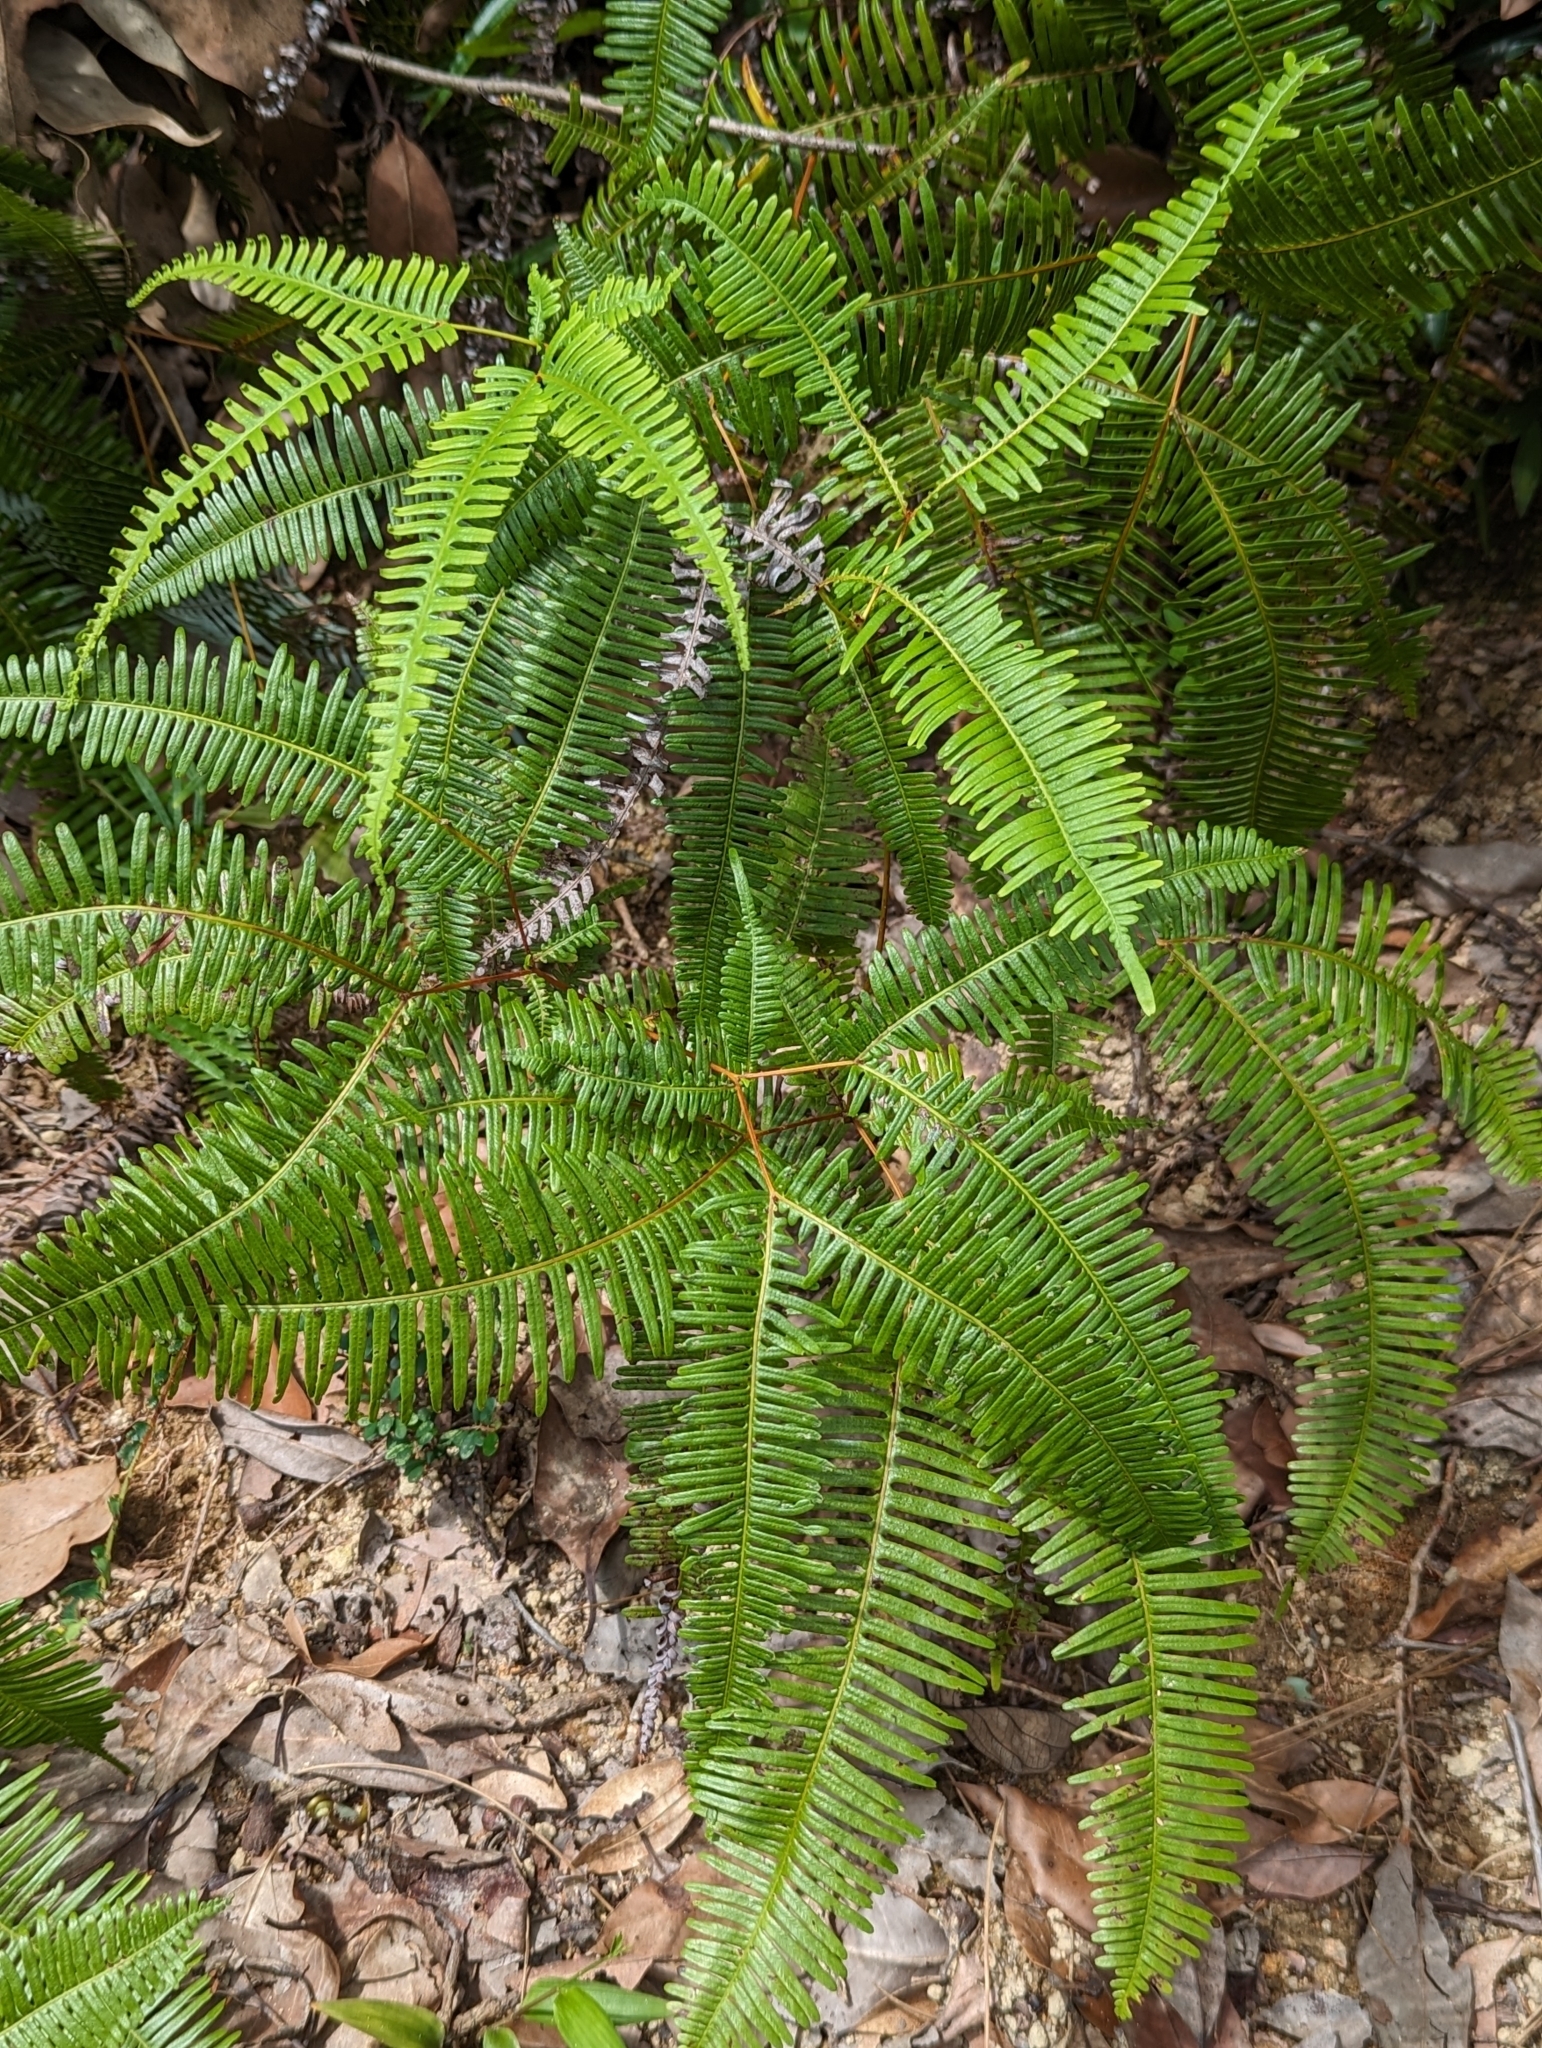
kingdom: Plantae
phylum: Tracheophyta
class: Polypodiopsida
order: Gleicheniales
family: Gleicheniaceae
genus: Dicranopteris
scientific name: Dicranopteris linearis
